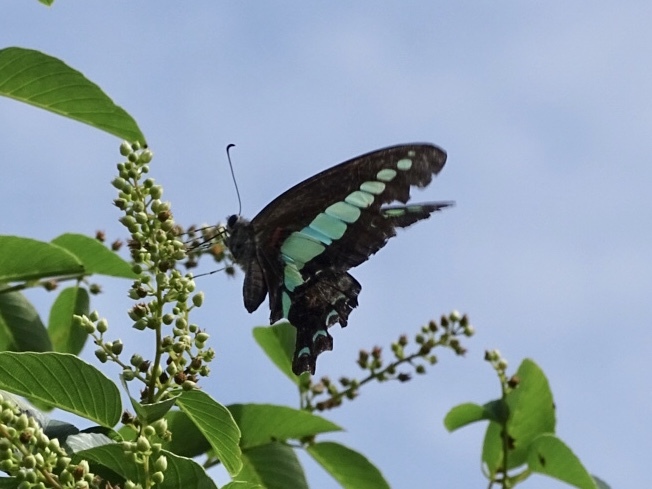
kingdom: Fungi
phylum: Ascomycota
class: Sordariomycetes
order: Microascales
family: Microascaceae
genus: Graphium
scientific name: Graphium sarpedon
